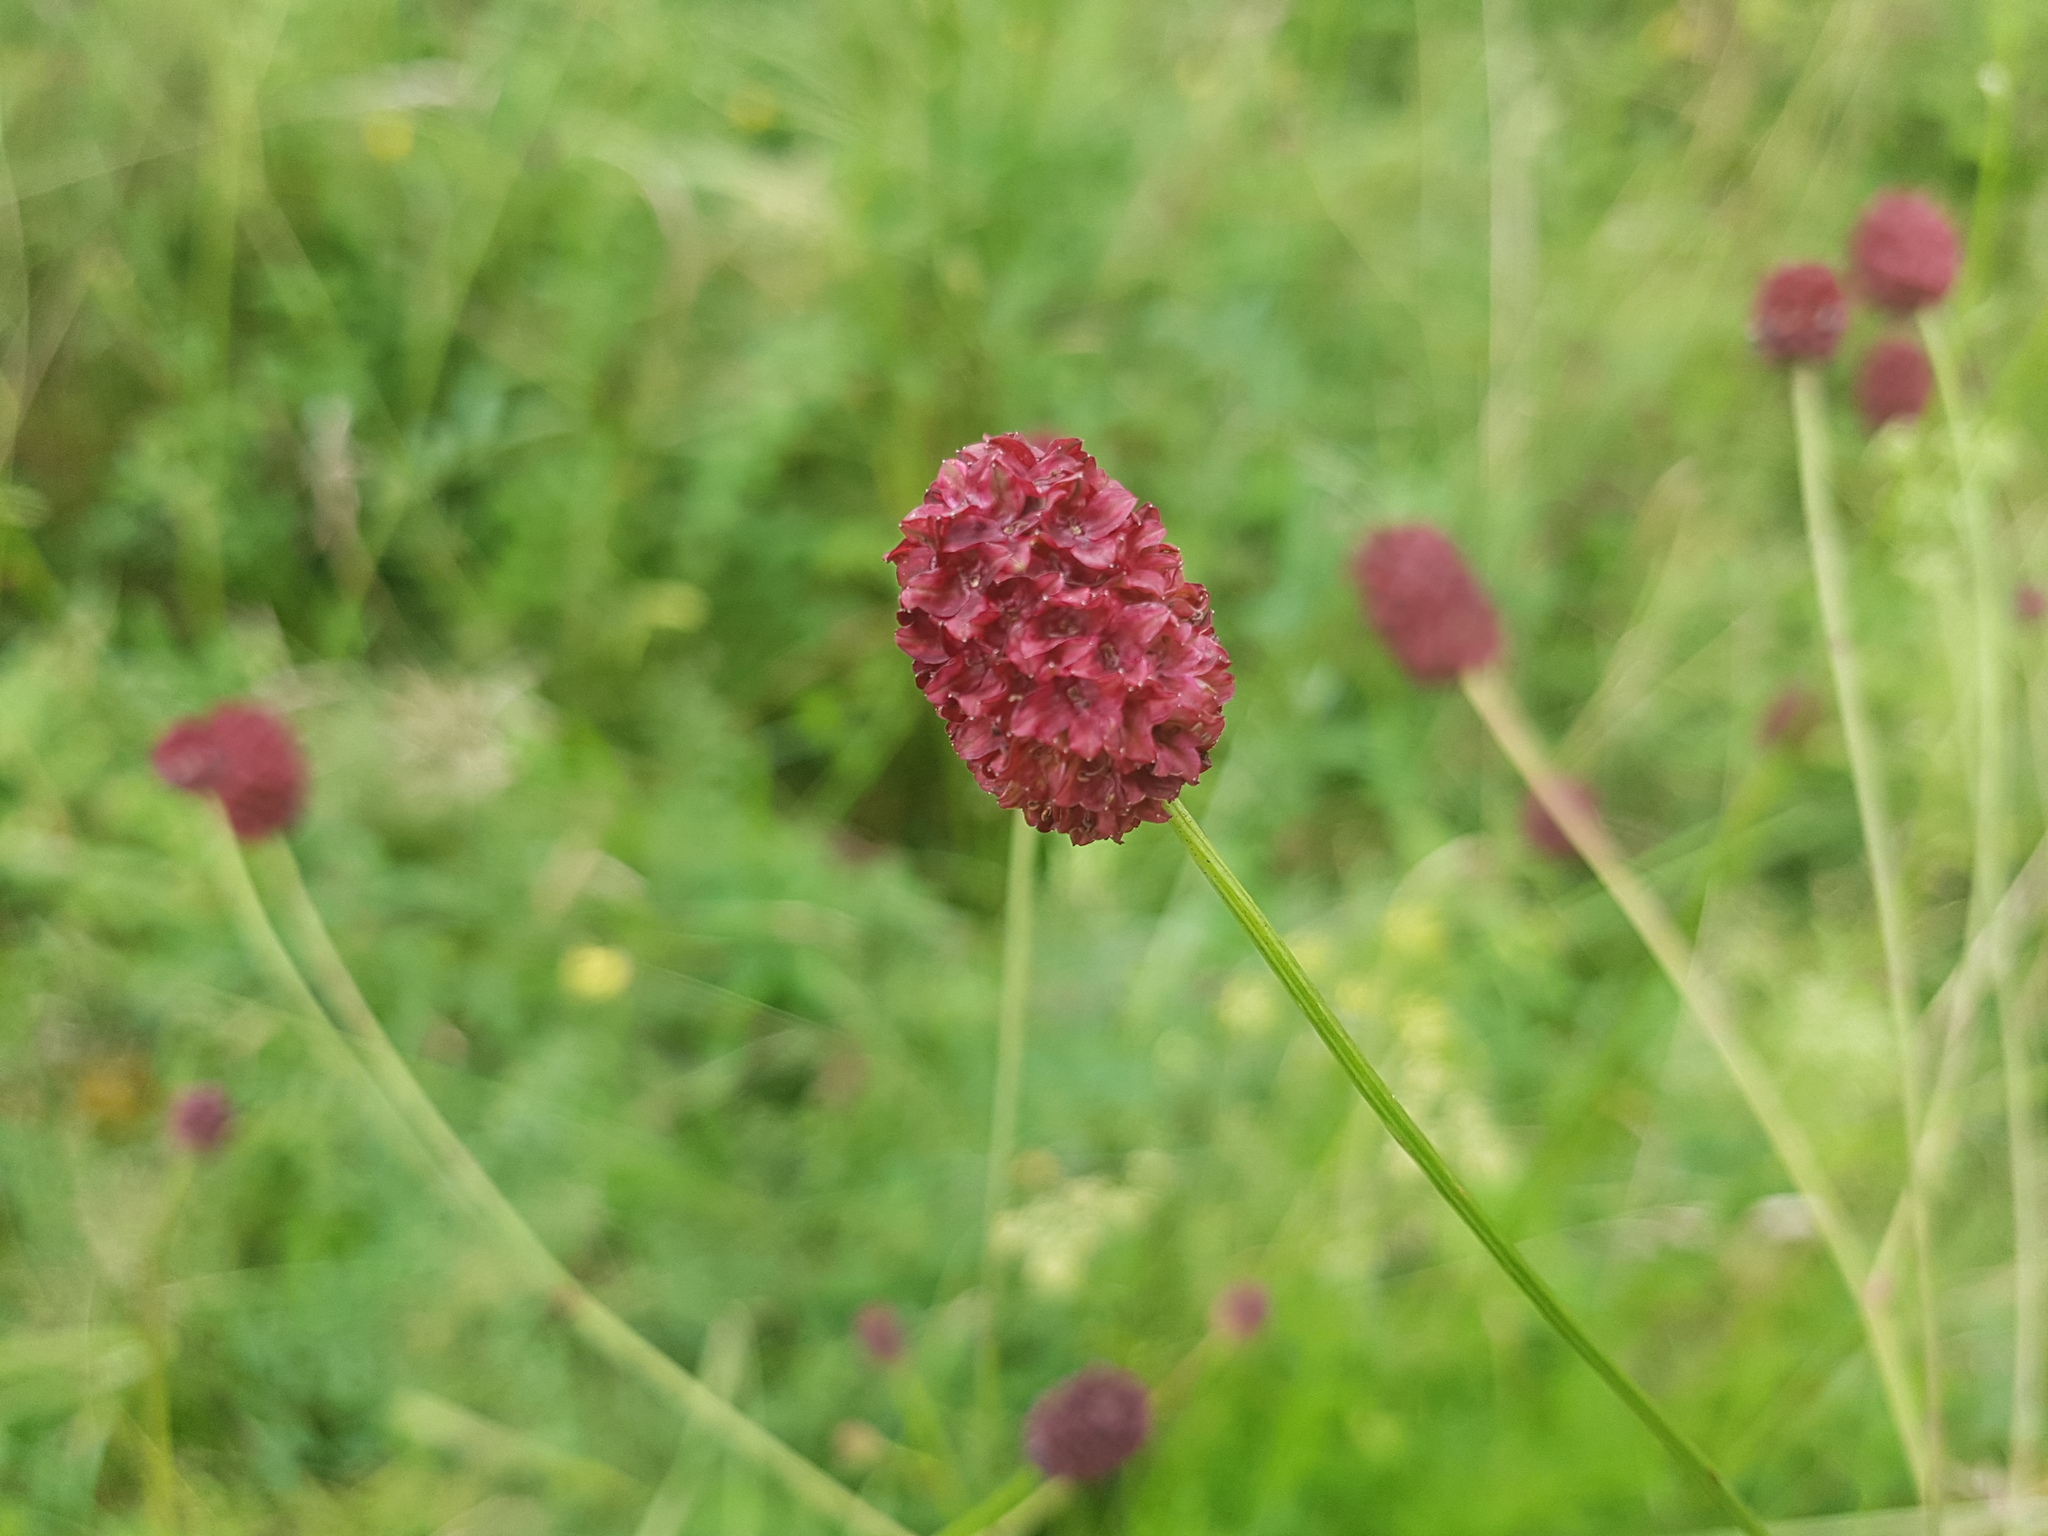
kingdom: Plantae
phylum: Tracheophyta
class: Magnoliopsida
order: Rosales
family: Rosaceae
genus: Sanguisorba
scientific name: Sanguisorba officinalis
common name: Great burnet
